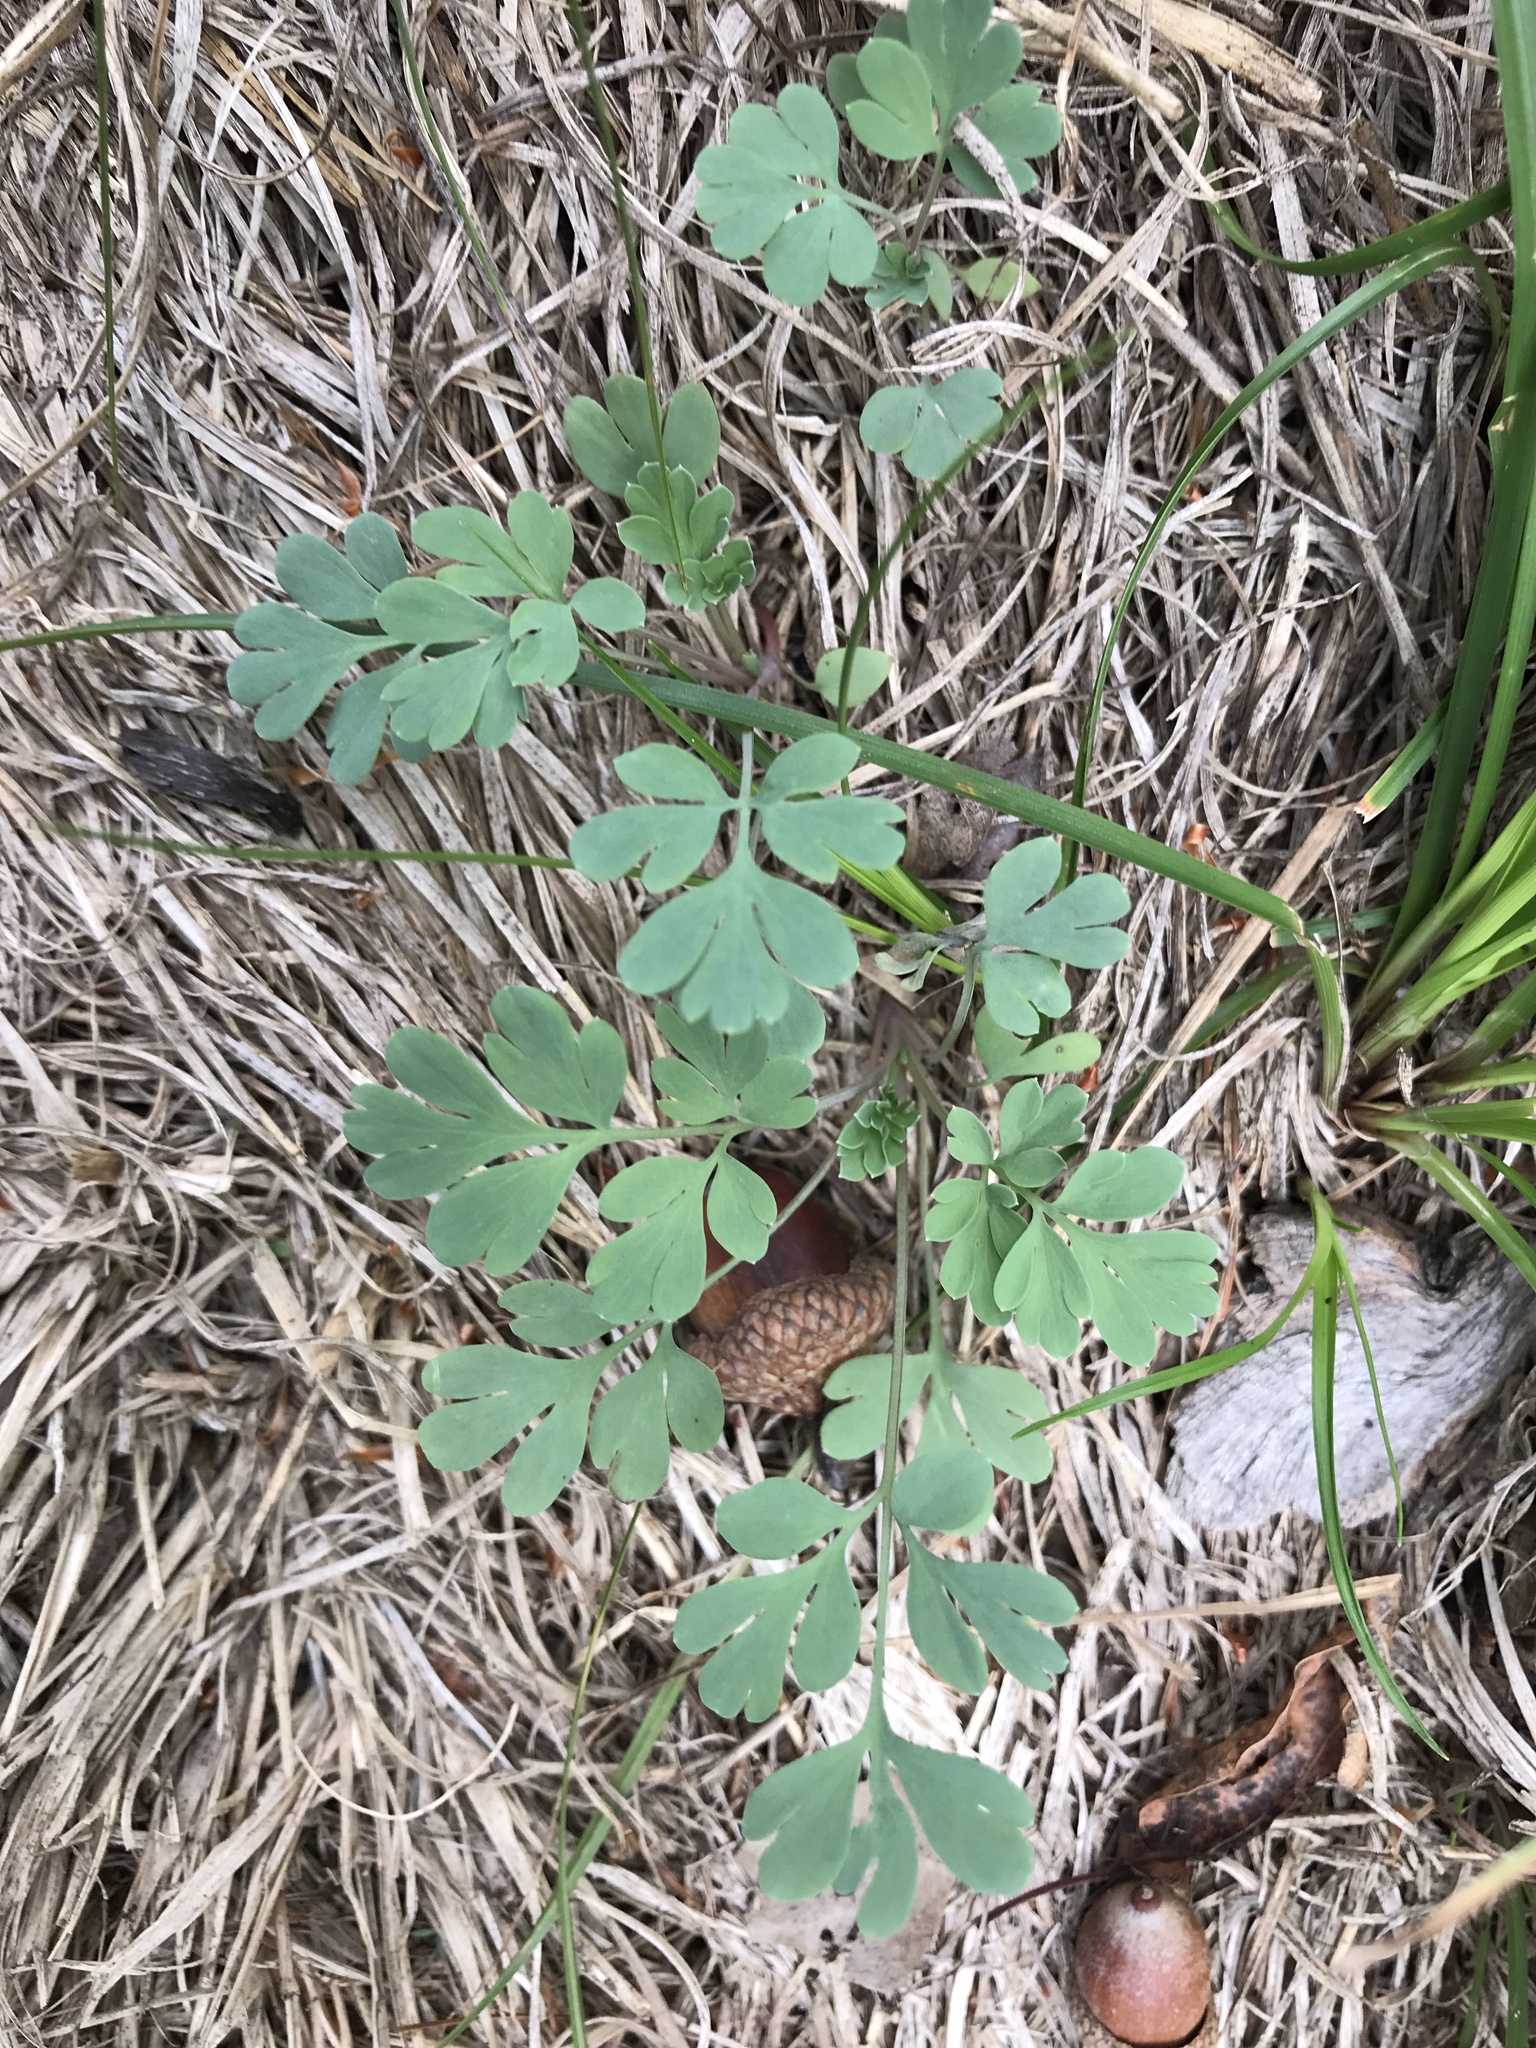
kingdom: Plantae
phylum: Tracheophyta
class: Magnoliopsida
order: Ranunculales
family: Papaveraceae
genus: Capnoides
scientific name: Capnoides sempervirens
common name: Rock harlequin
